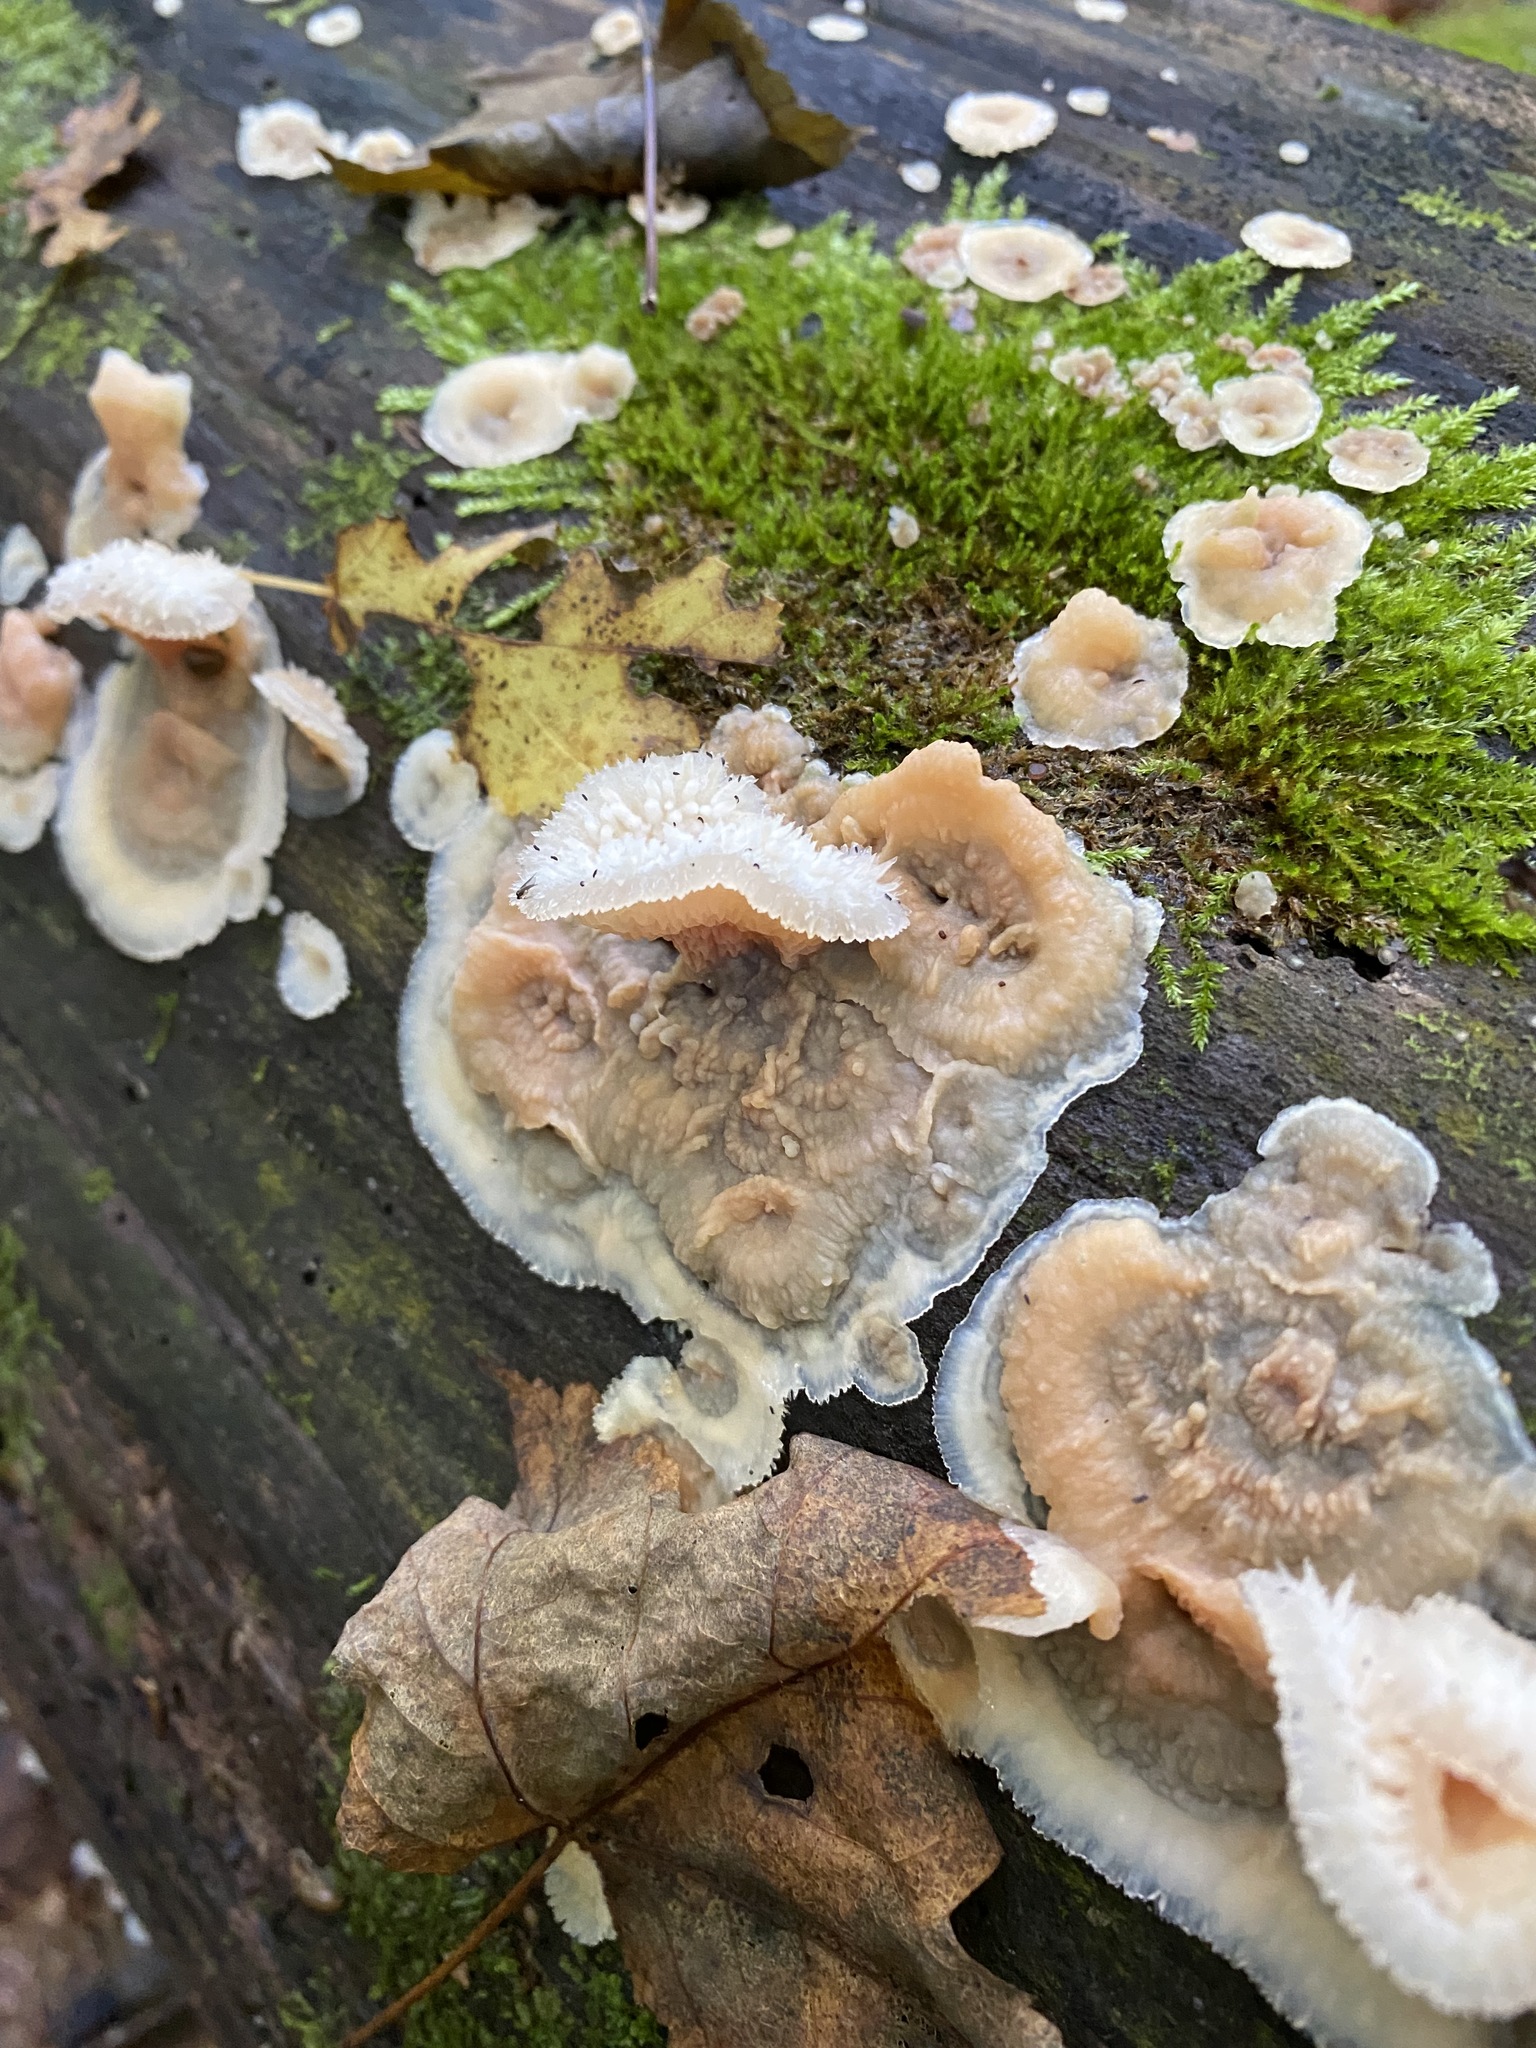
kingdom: Fungi
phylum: Basidiomycota
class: Agaricomycetes
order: Polyporales
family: Meruliaceae
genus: Phlebia
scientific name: Phlebia tremellosa
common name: Jelly rot
